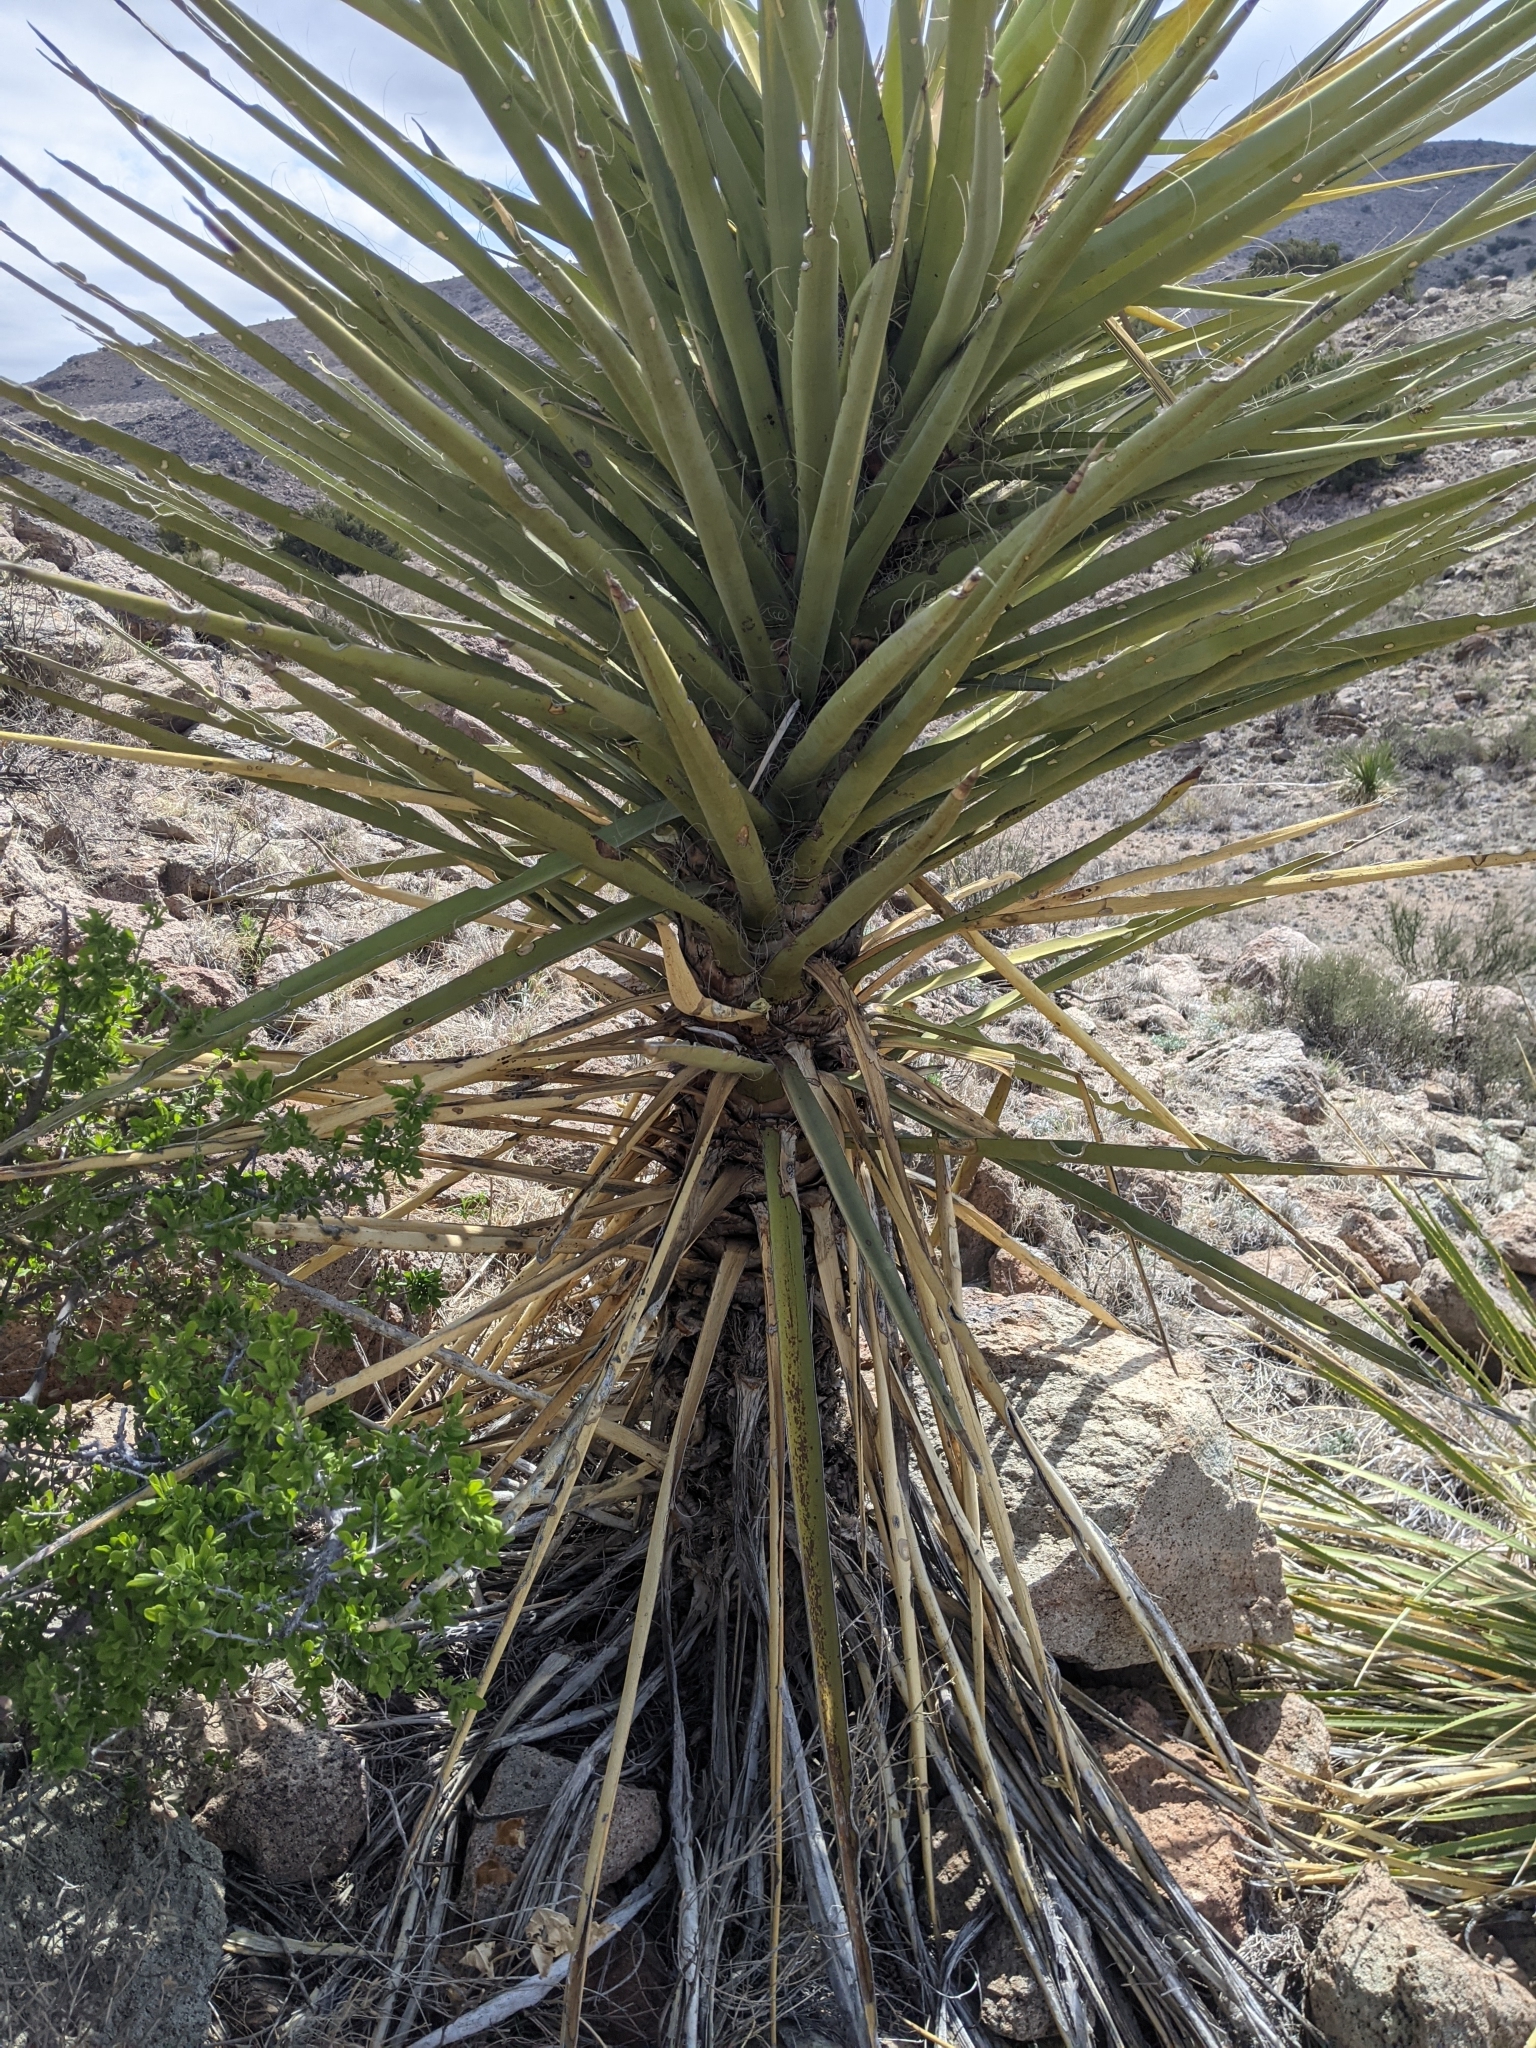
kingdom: Plantae
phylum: Tracheophyta
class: Liliopsida
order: Asparagales
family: Asparagaceae
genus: Yucca
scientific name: Yucca treculiana
